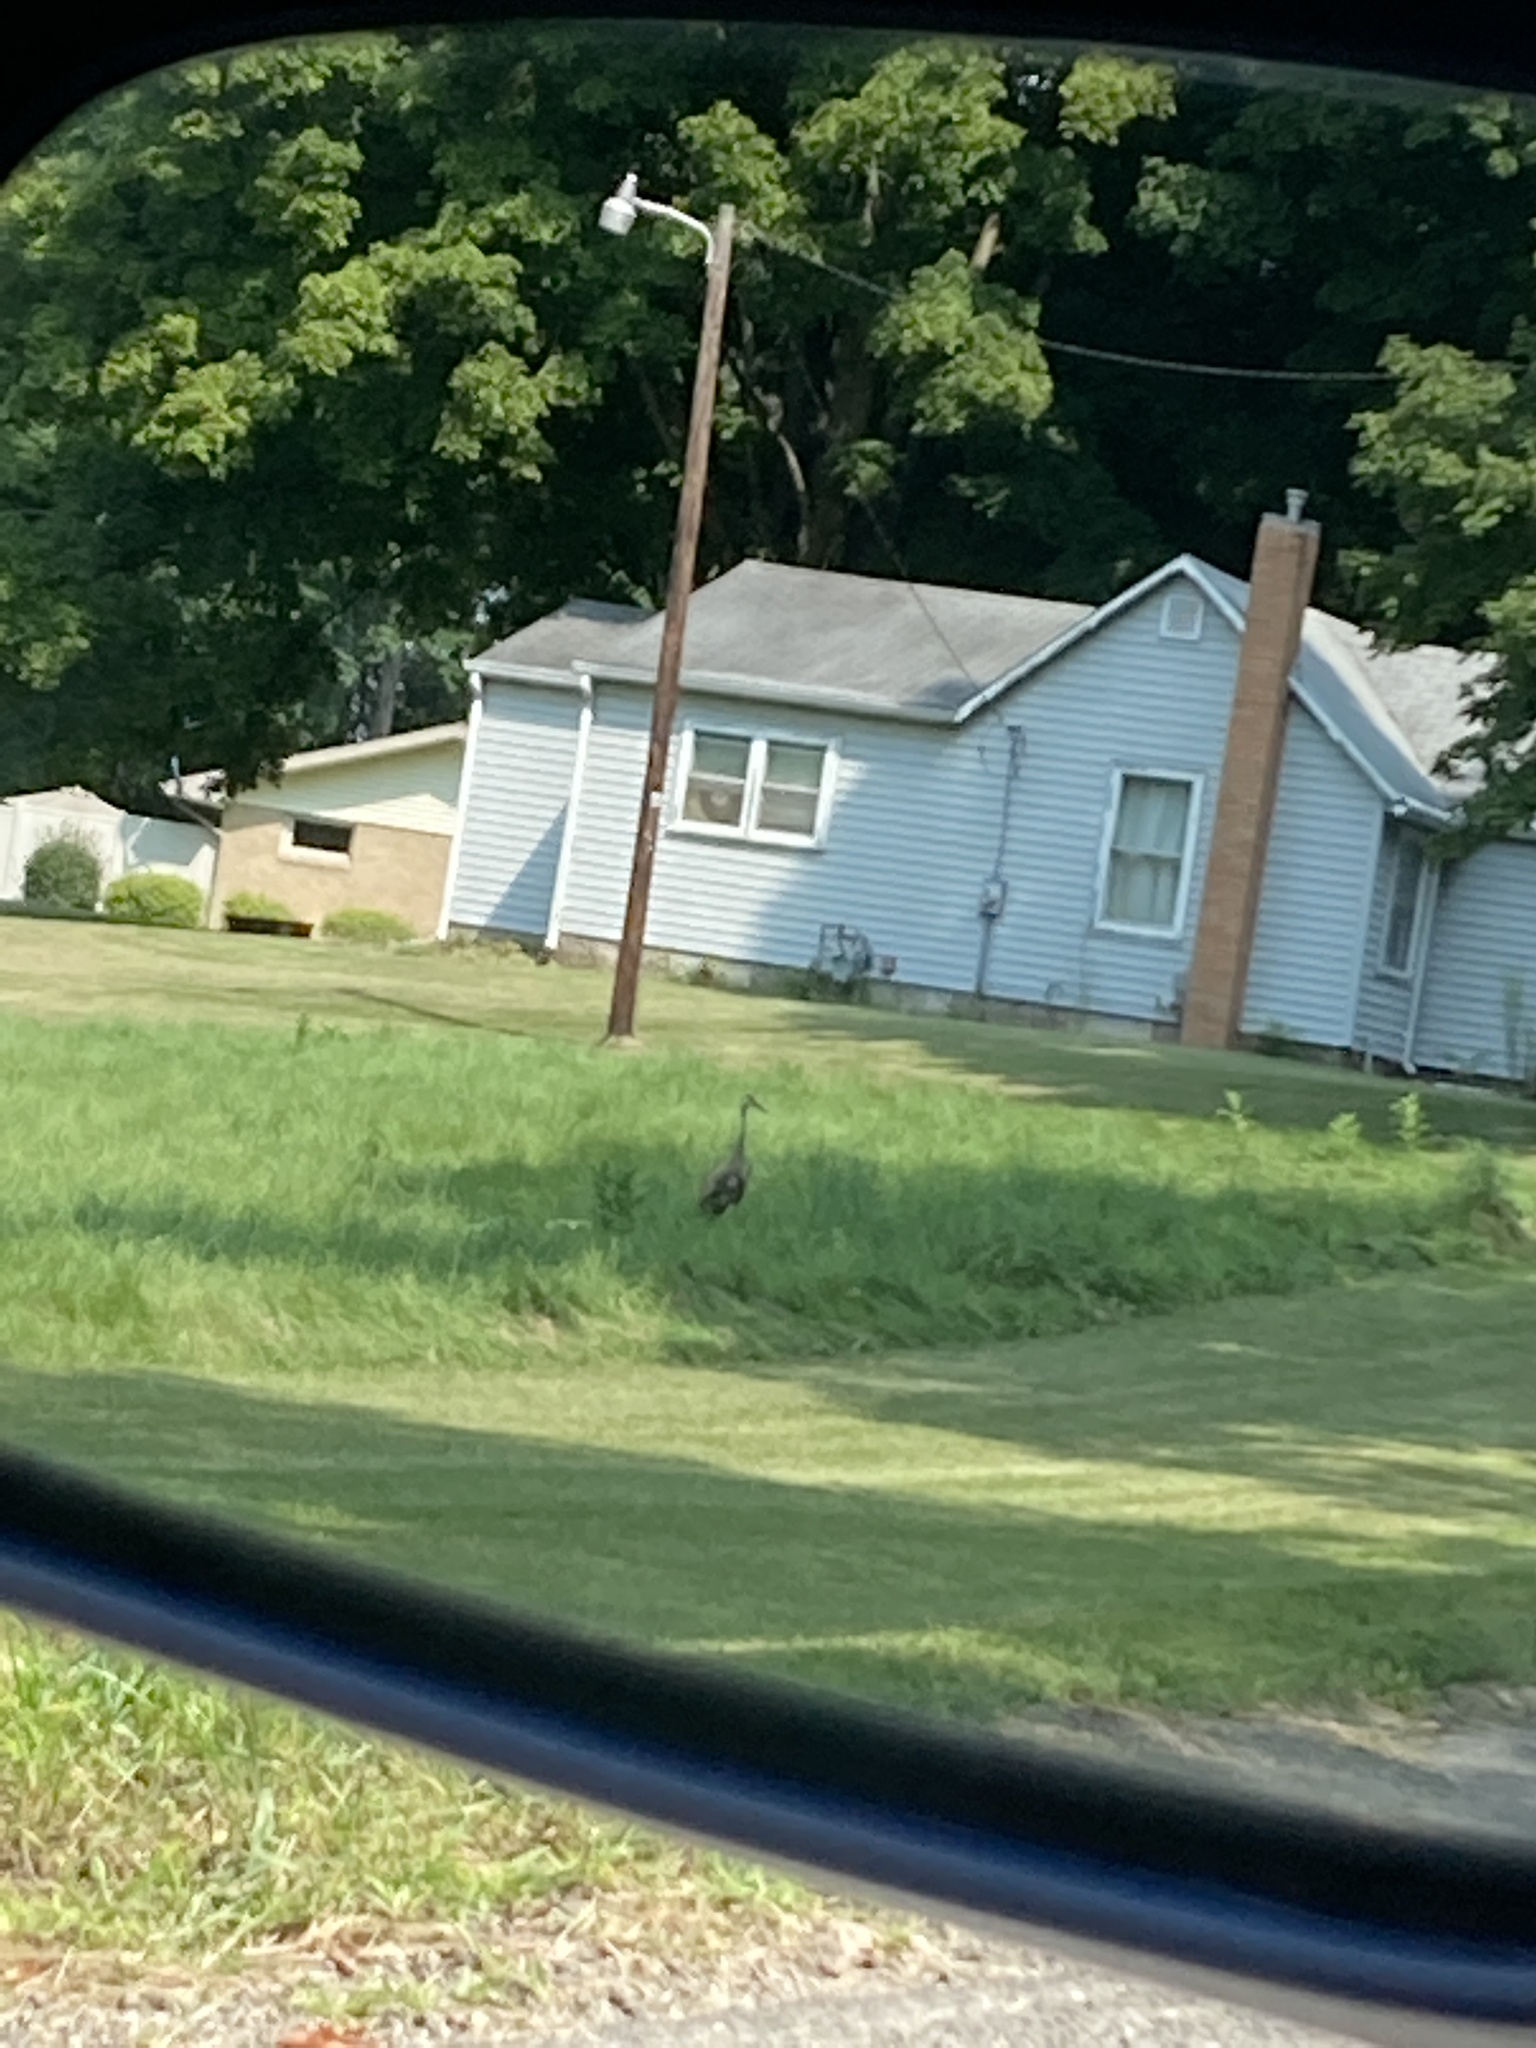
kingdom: Animalia
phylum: Chordata
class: Aves
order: Gruiformes
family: Gruidae
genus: Grus
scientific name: Grus canadensis
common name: Sandhill crane
